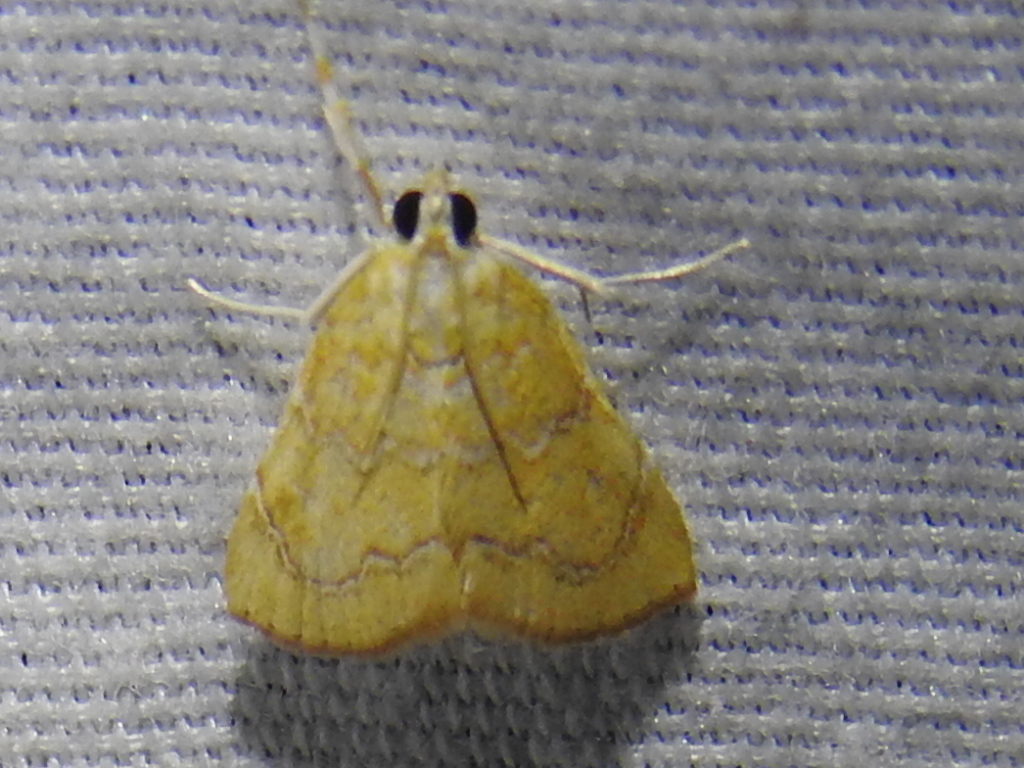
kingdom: Animalia
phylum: Arthropoda
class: Insecta
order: Lepidoptera
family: Crambidae
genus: Glaphyria
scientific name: Glaphyria sesquistrialis
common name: White-roped glaphyria
